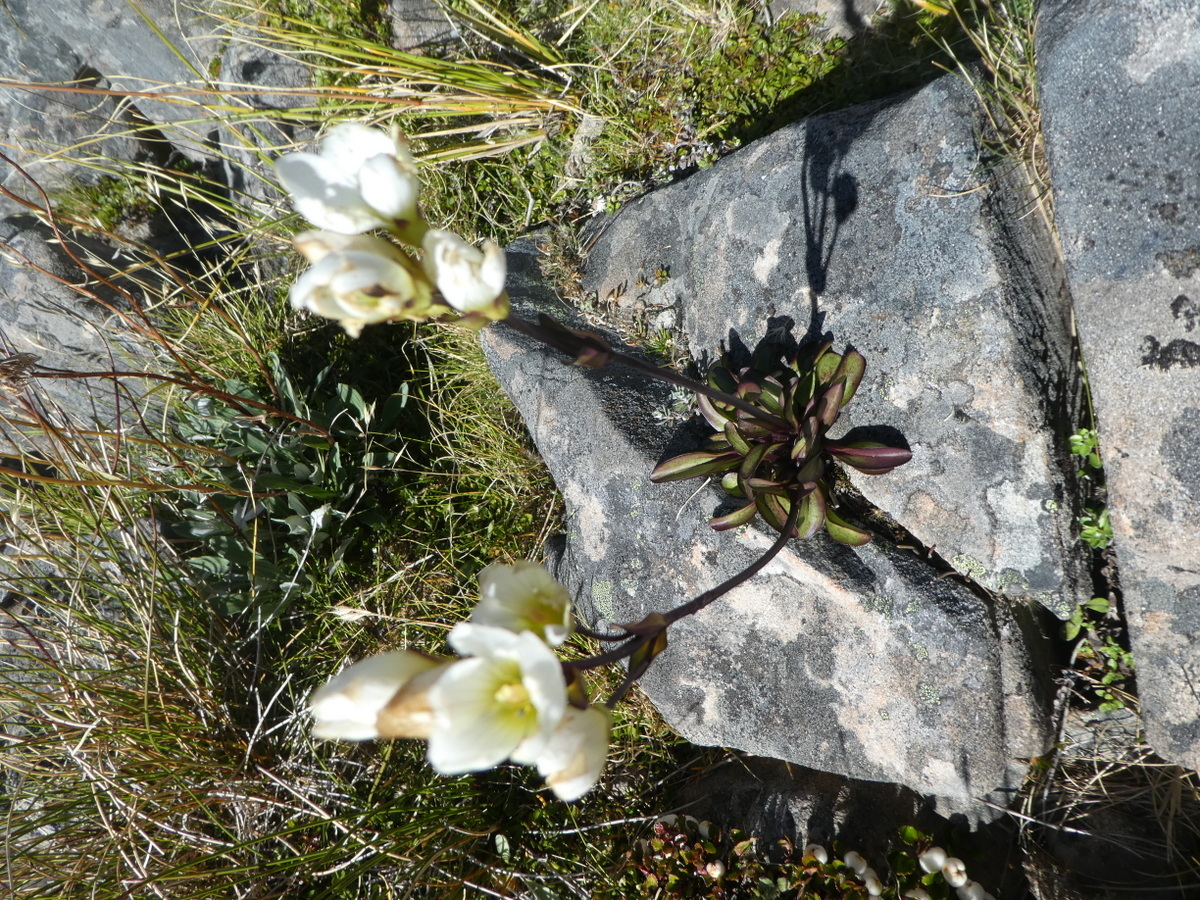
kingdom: Plantae
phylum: Tracheophyta
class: Magnoliopsida
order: Gentianales
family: Gentianaceae
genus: Gentianella
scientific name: Gentianella bellidifolia
